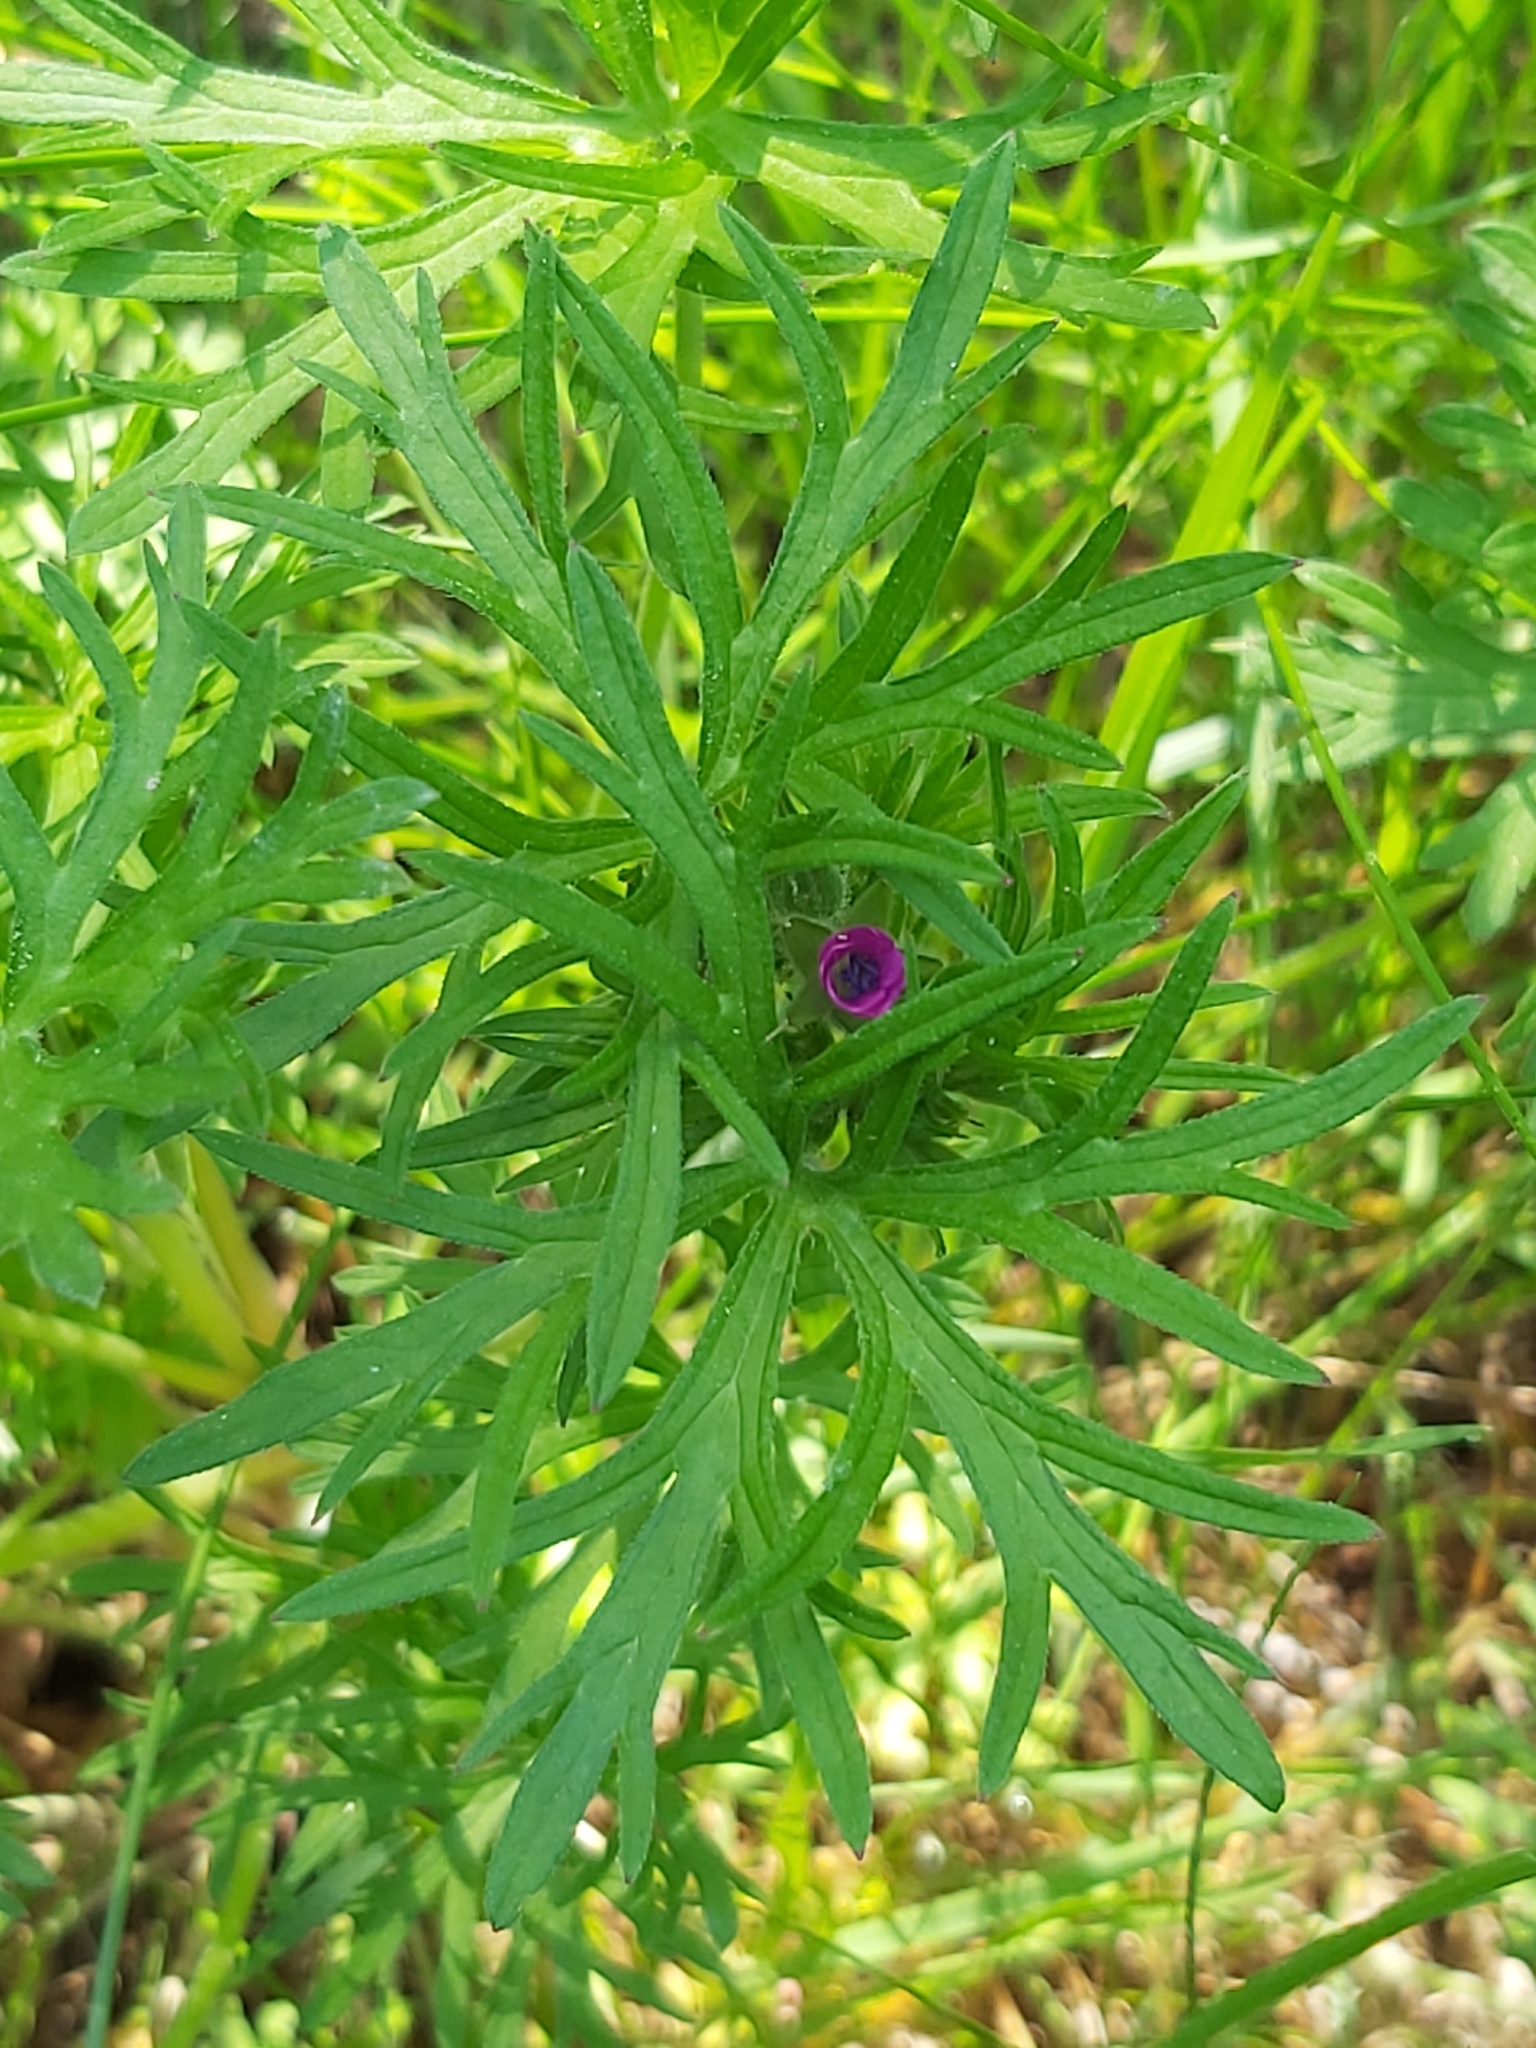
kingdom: Plantae
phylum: Tracheophyta
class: Magnoliopsida
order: Geraniales
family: Geraniaceae
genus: Geranium
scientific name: Geranium dissectum
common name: Cut-leaved crane's-bill
